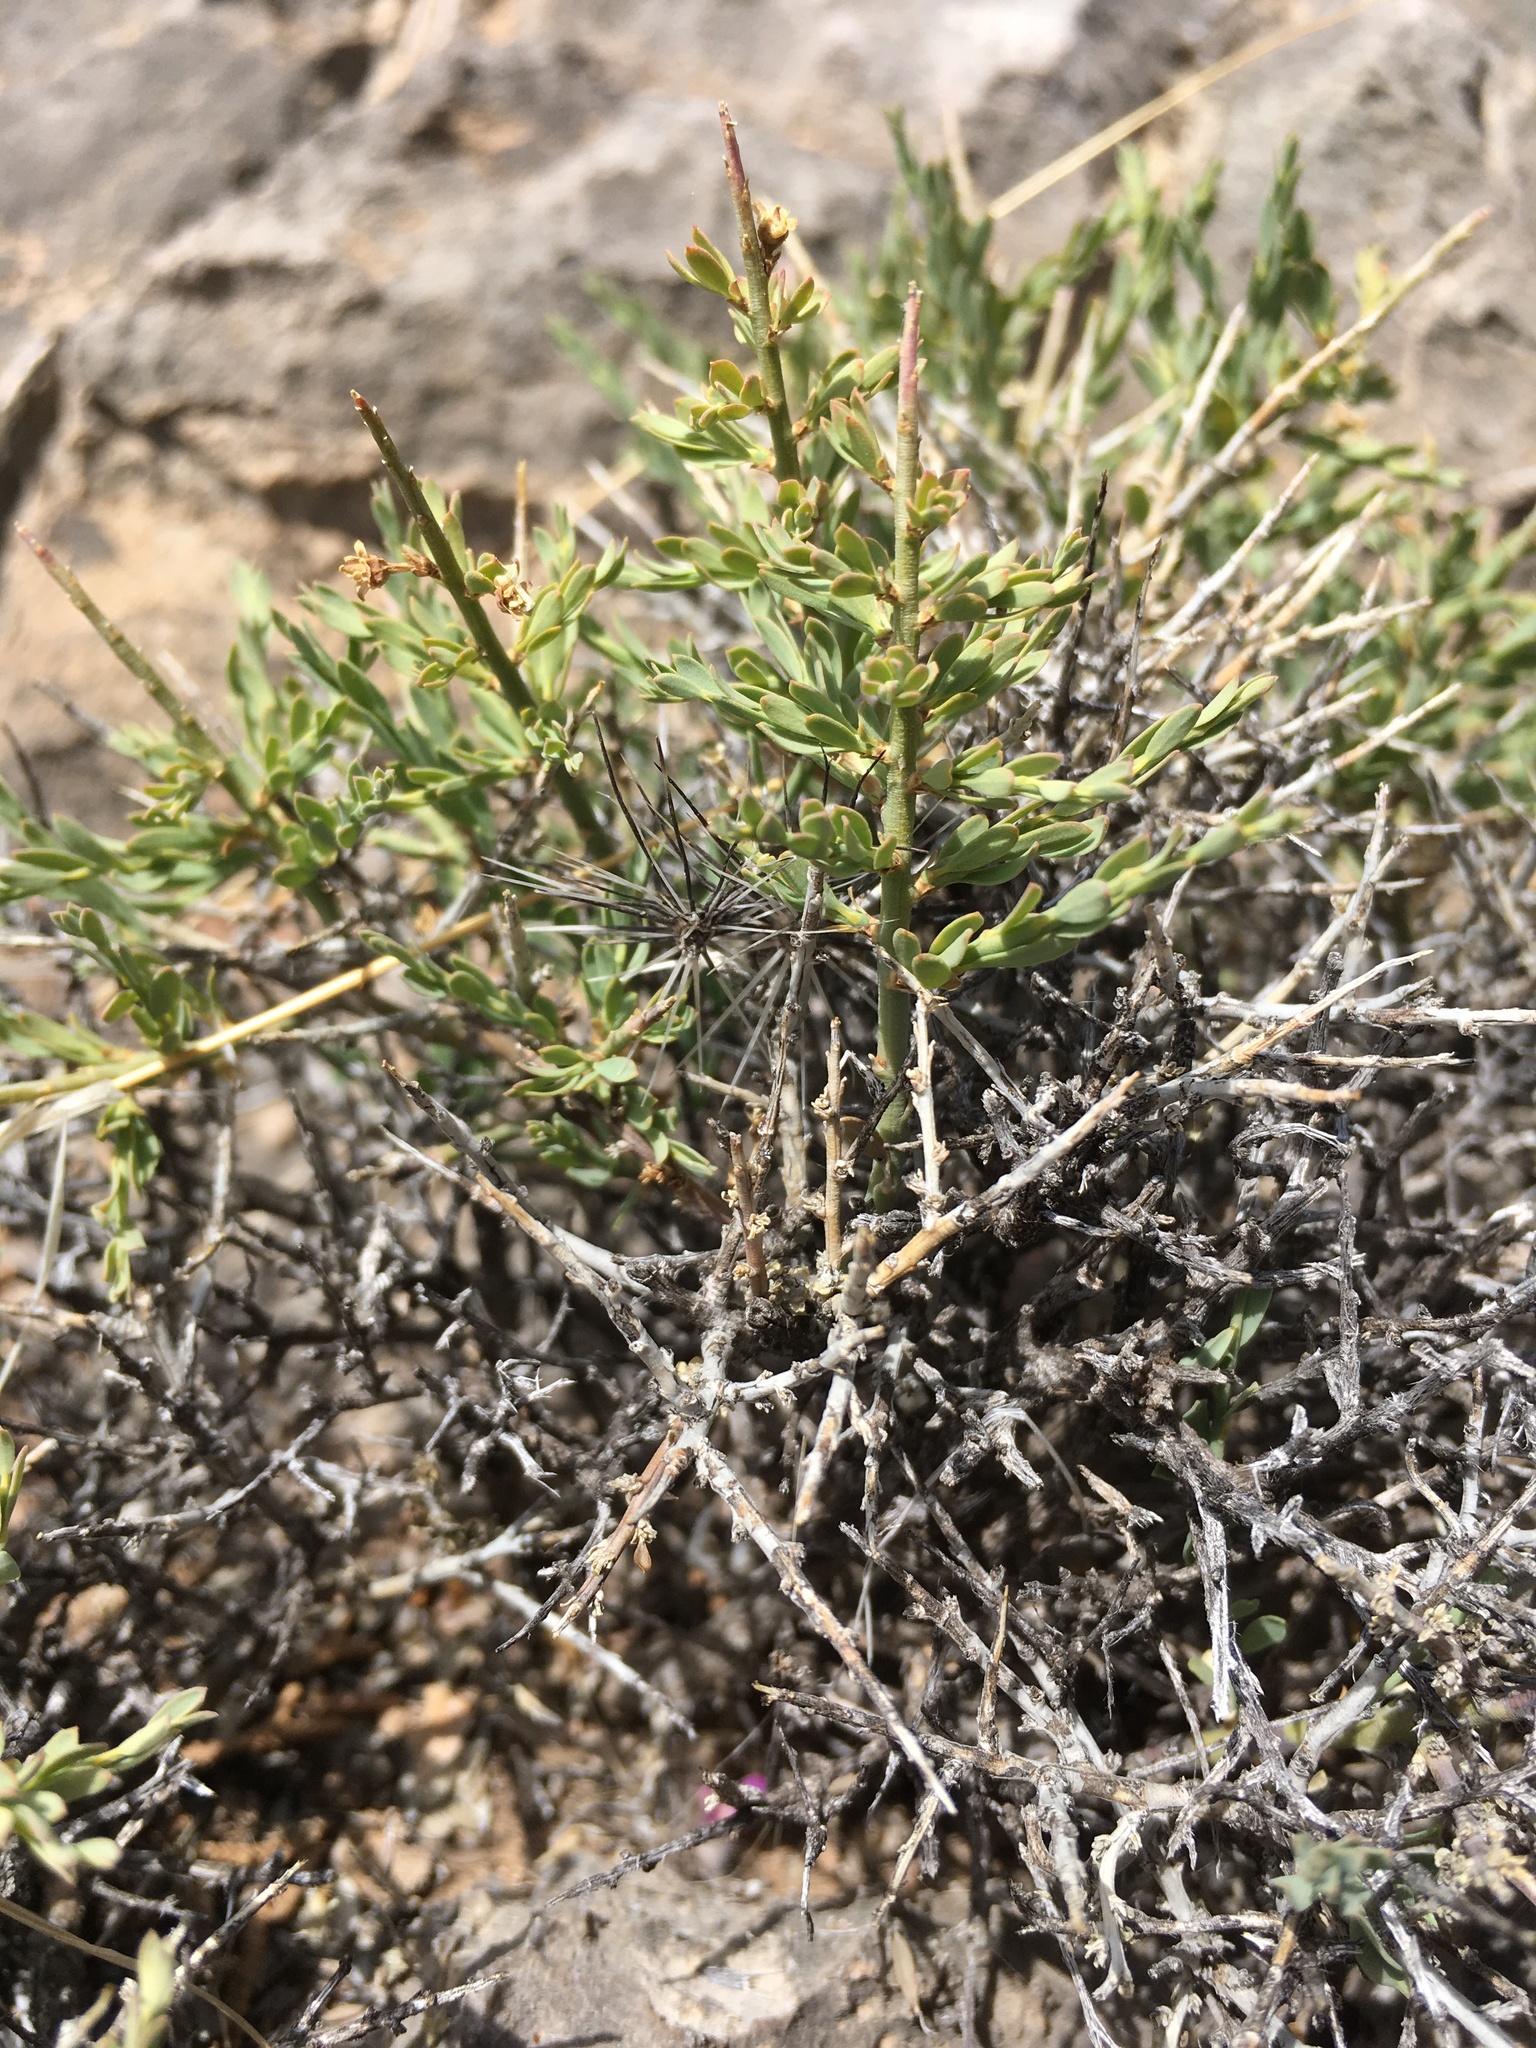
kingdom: Plantae
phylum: Tracheophyta
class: Magnoliopsida
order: Crossosomatales
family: Crossosomataceae
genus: Glossopetalon
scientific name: Glossopetalon spinescens
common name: Spring greasebush
